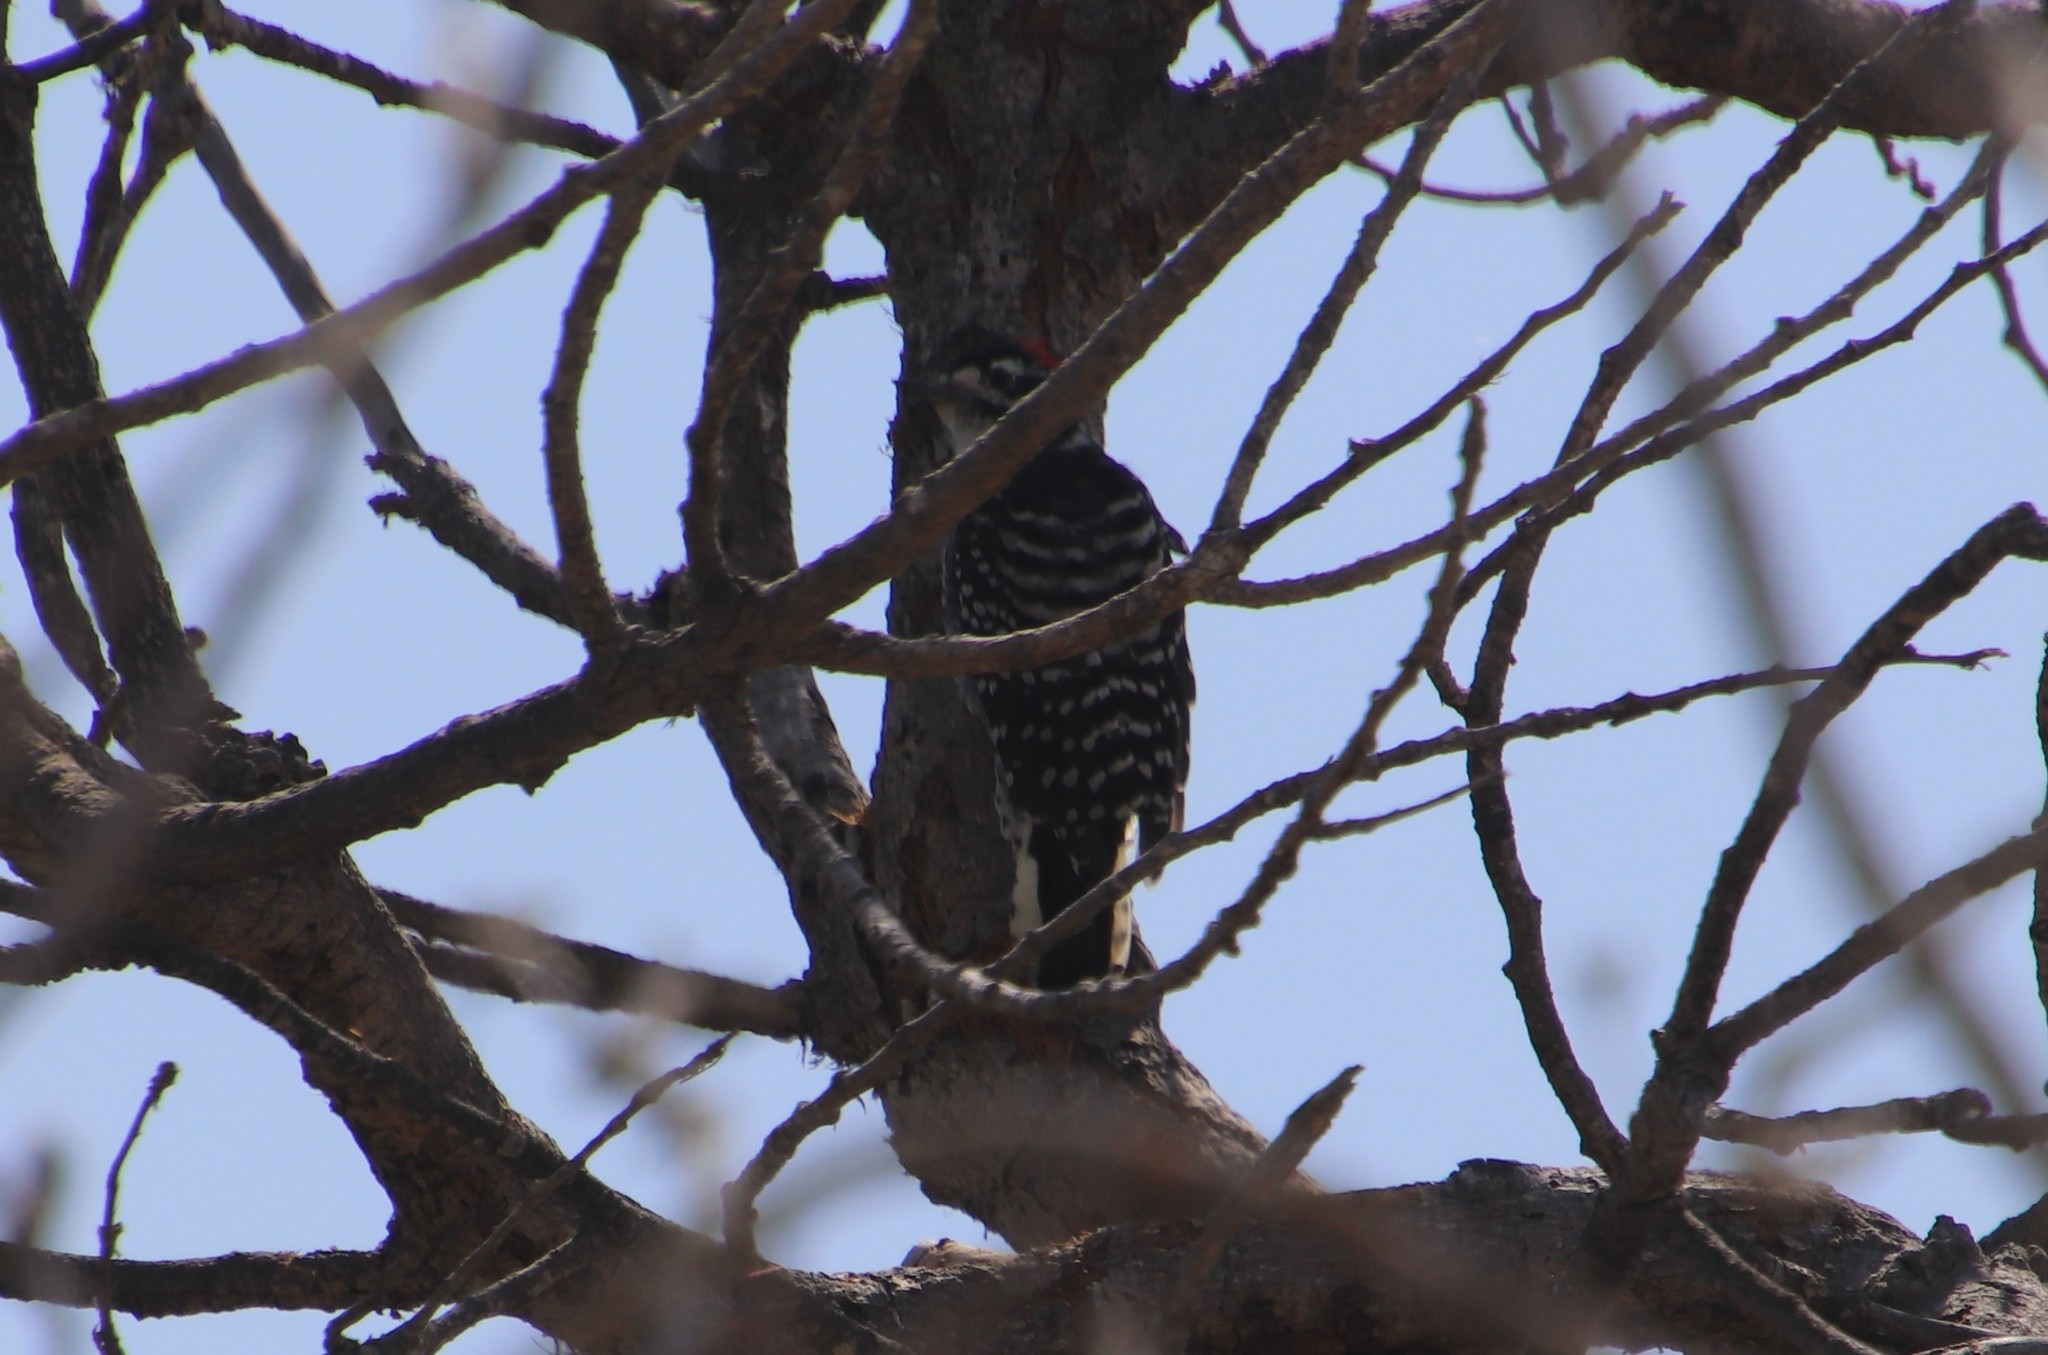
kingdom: Animalia
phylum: Chordata
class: Aves
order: Piciformes
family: Picidae
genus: Dryobates
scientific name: Dryobates nuttallii
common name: Nuttall's woodpecker
